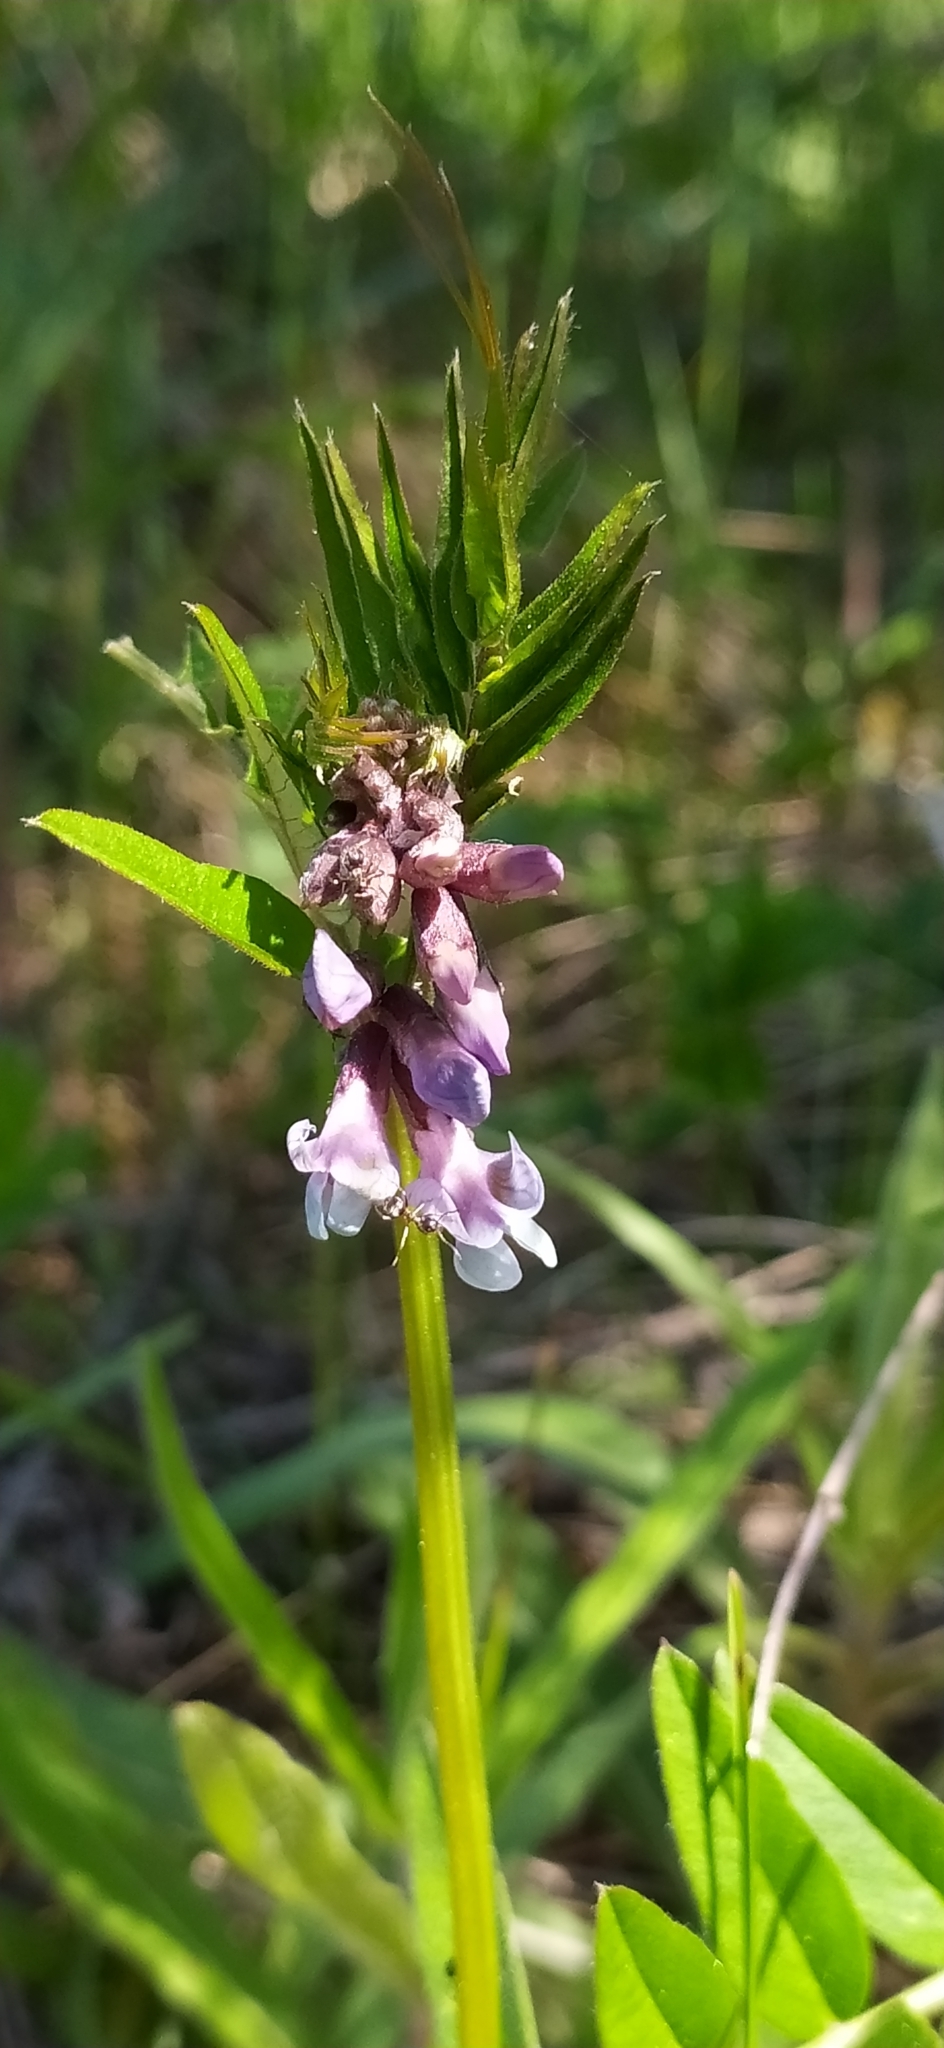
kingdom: Plantae
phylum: Tracheophyta
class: Magnoliopsida
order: Fabales
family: Fabaceae
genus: Vicia
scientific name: Vicia sepium
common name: Bush vetch
